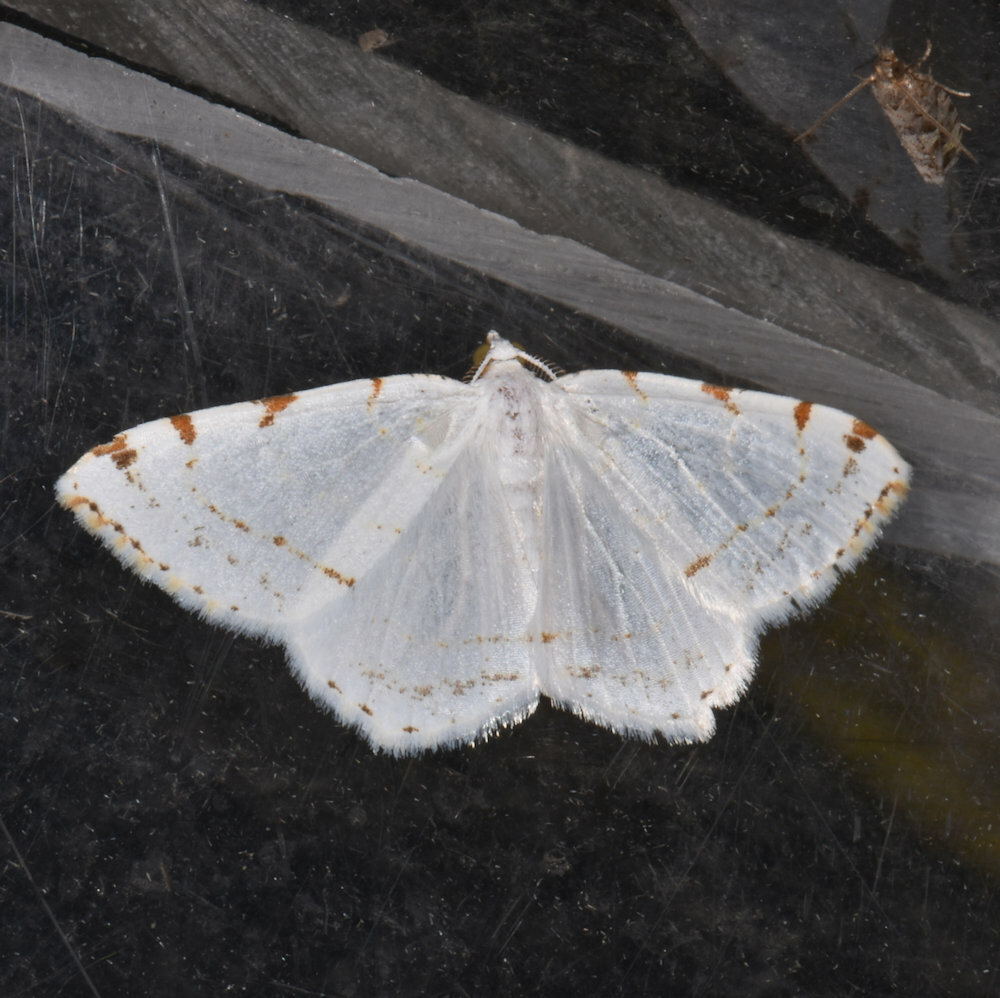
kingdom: Animalia
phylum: Arthropoda
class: Insecta
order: Lepidoptera
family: Geometridae
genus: Macaria
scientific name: Macaria pustularia
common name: Lesser maple spanworm moth
